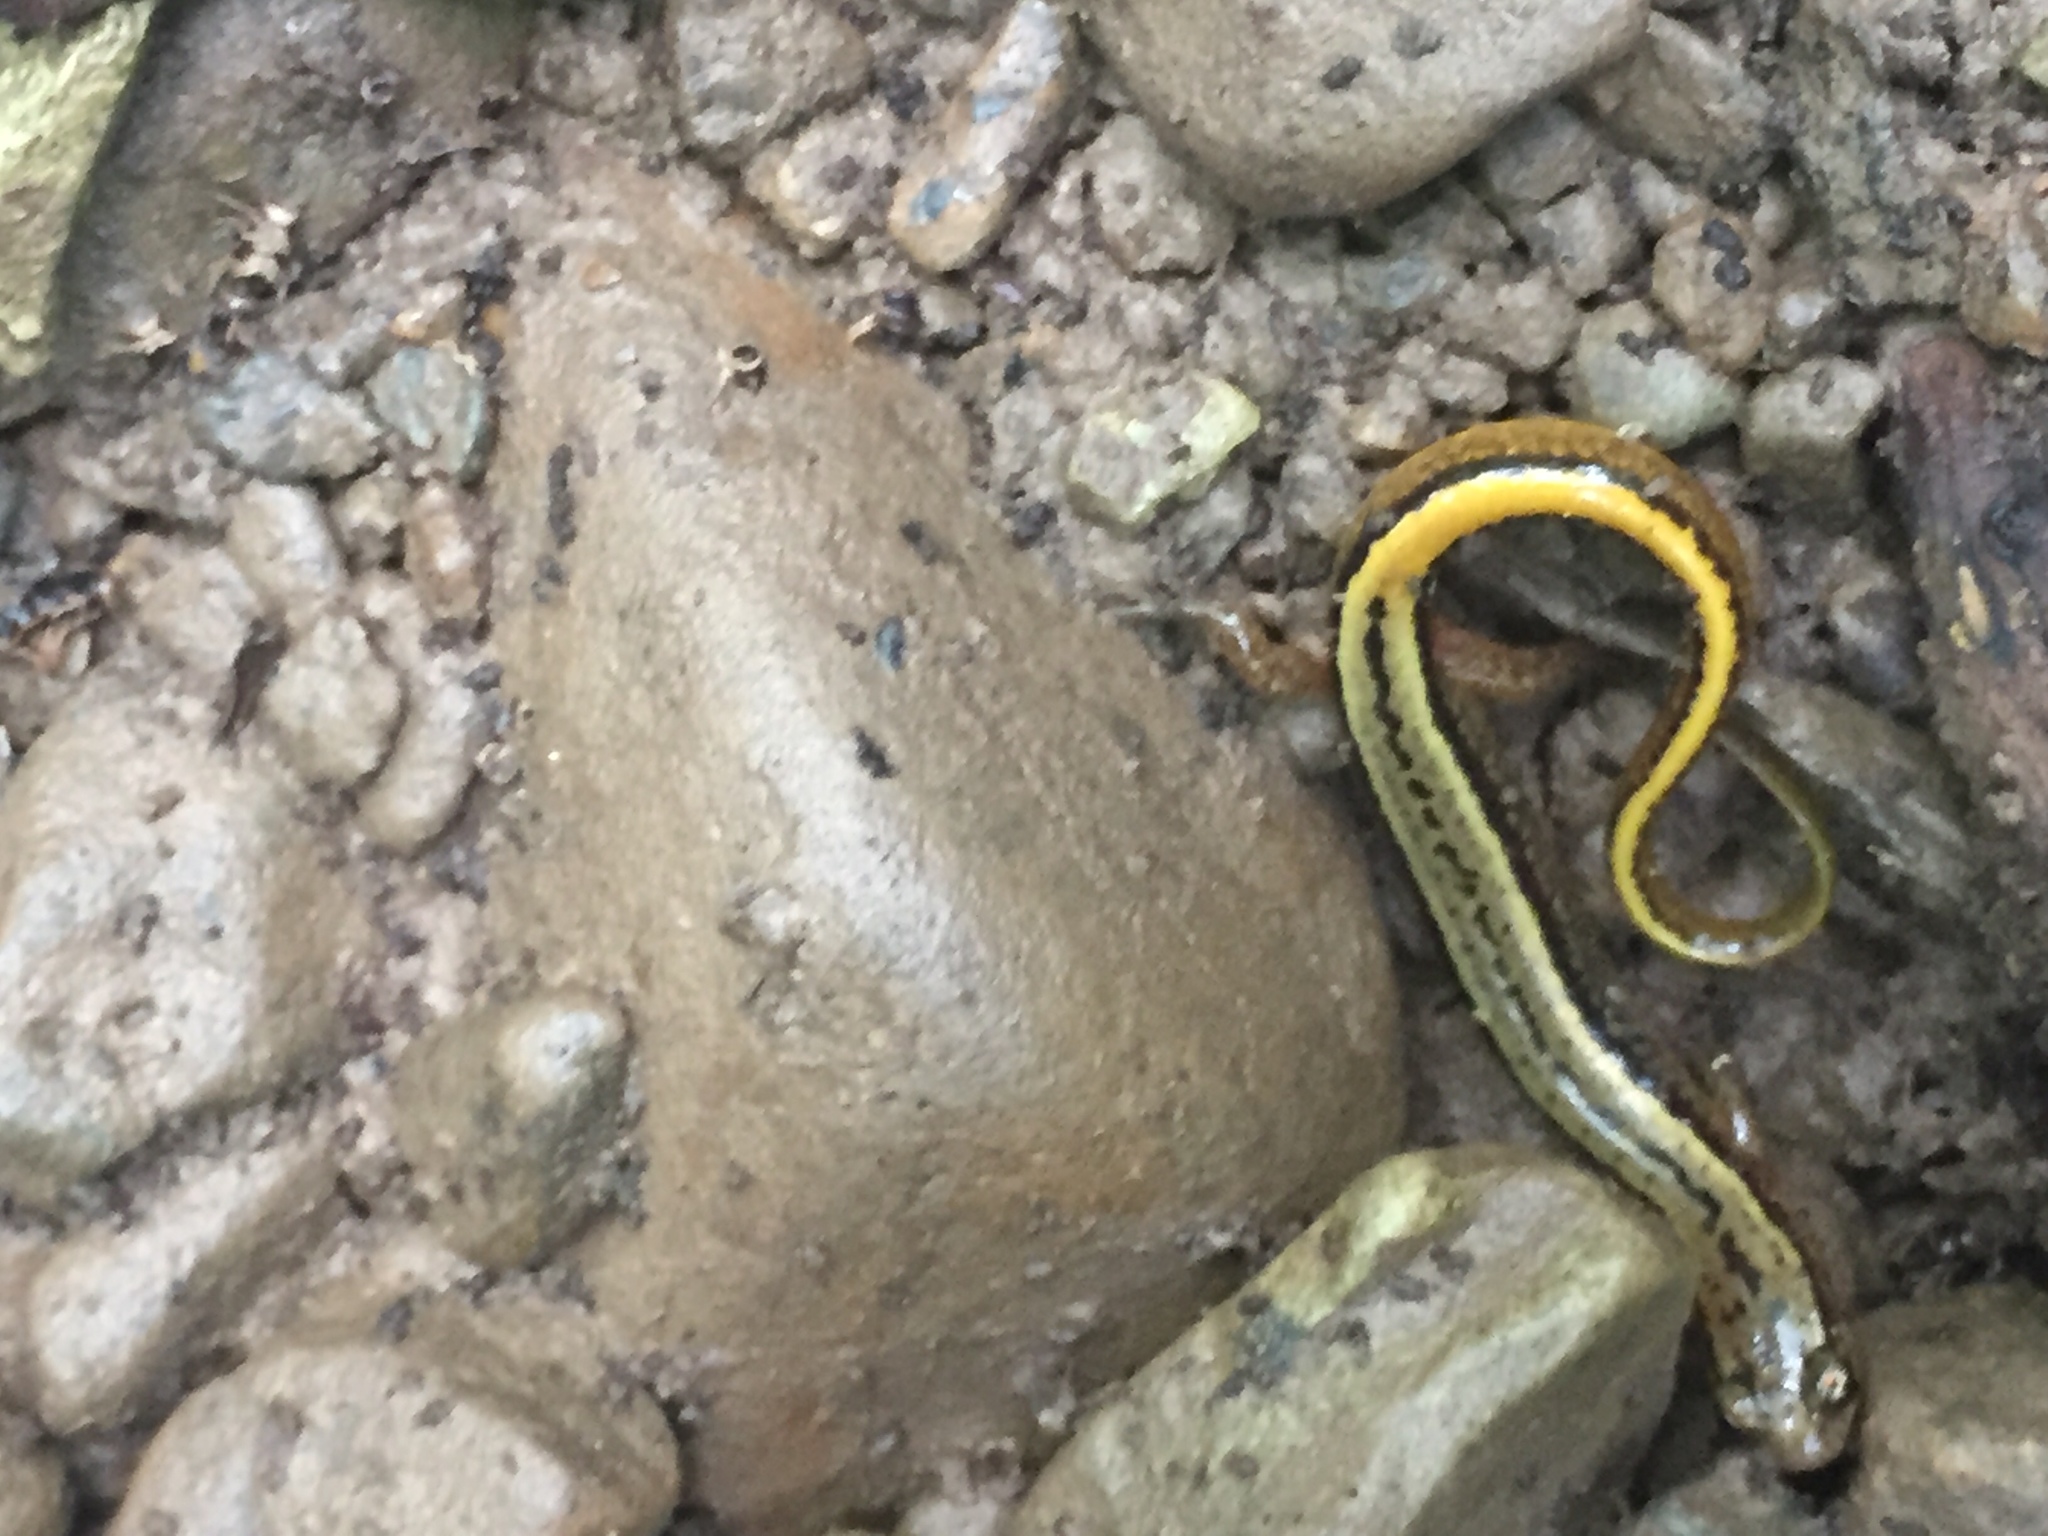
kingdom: Animalia
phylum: Chordata
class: Amphibia
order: Caudata
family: Plethodontidae
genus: Eurycea
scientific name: Eurycea bislineata
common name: Northern two-lined salamander
